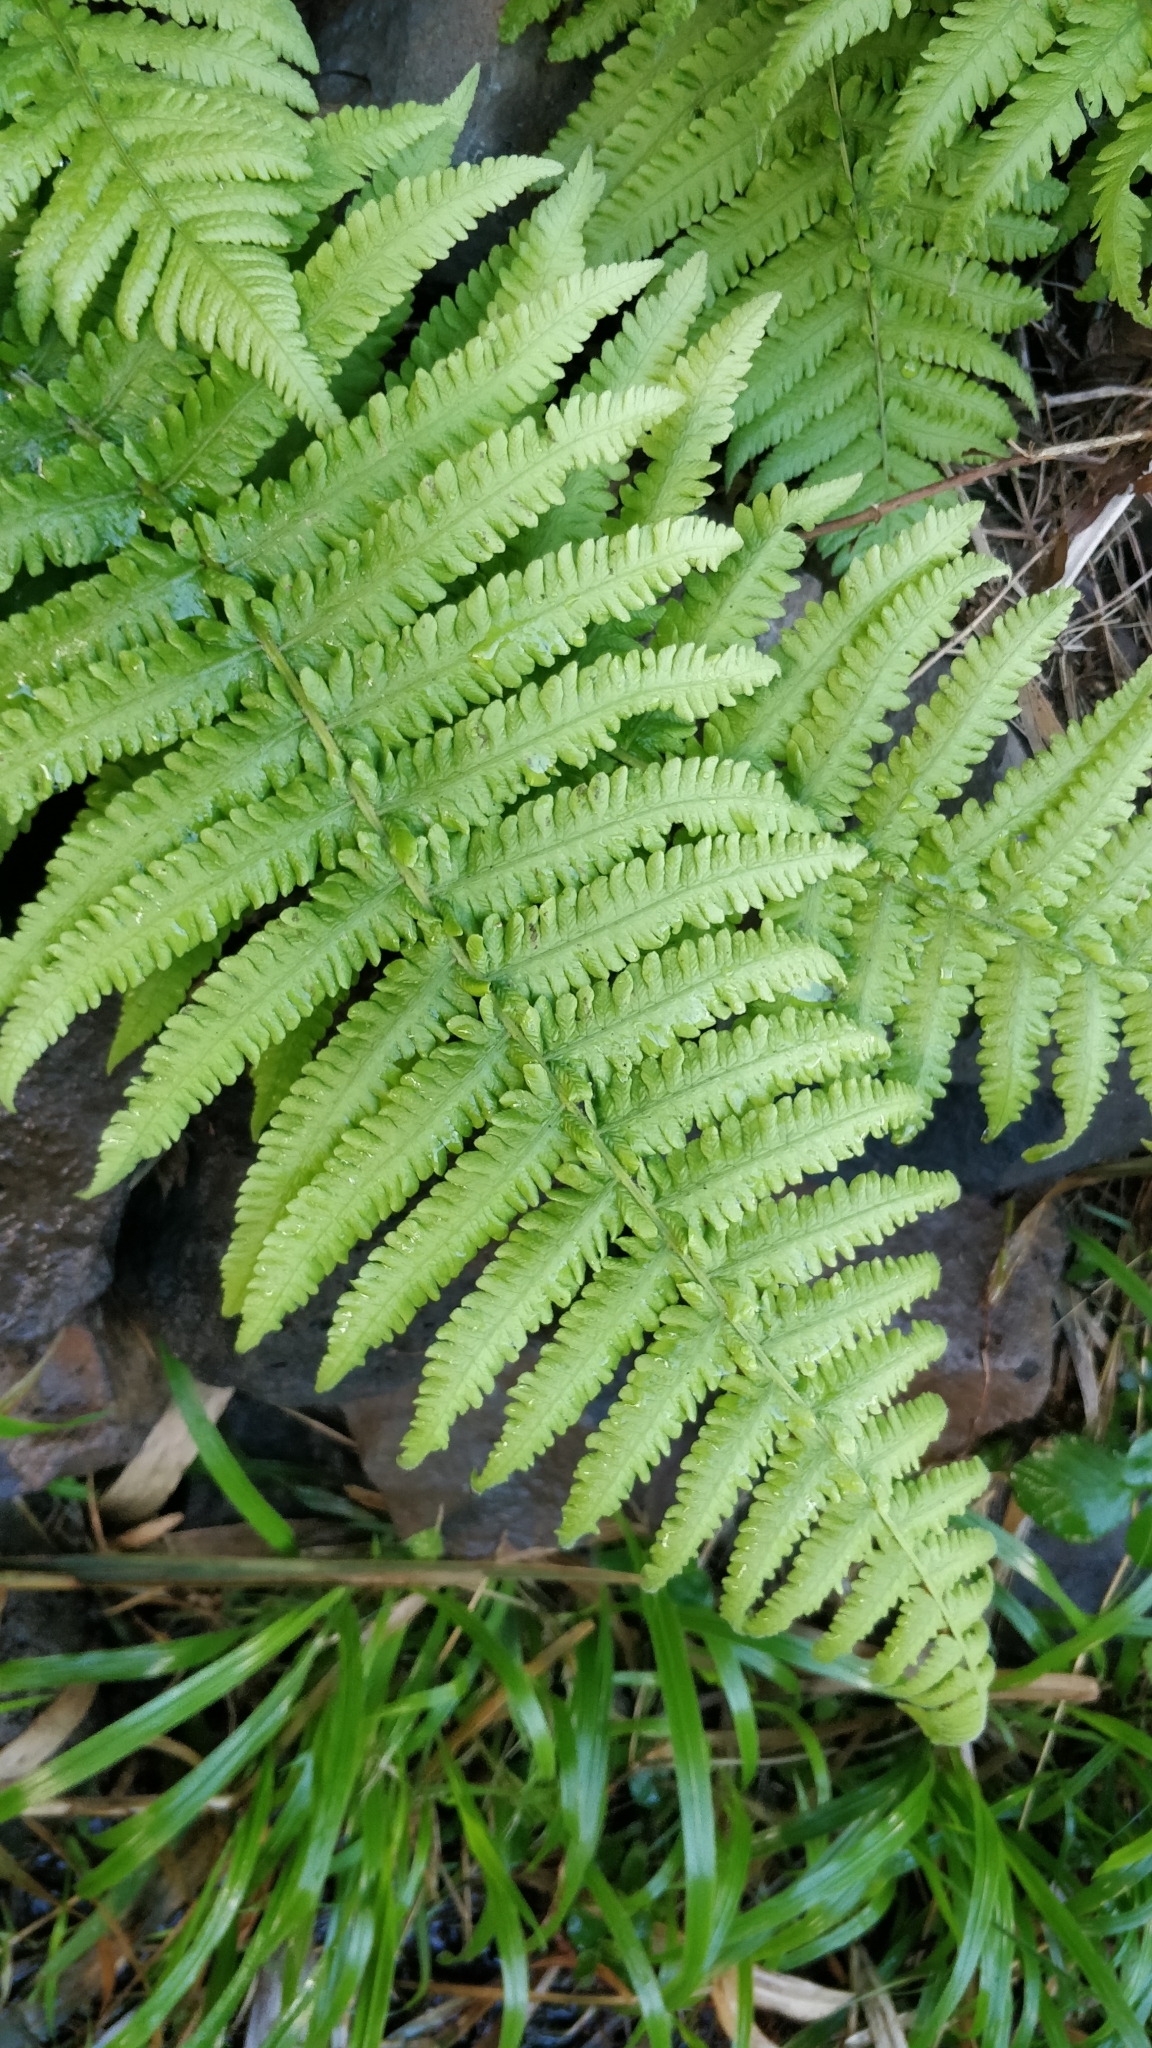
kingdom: Plantae
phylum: Tracheophyta
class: Polypodiopsida
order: Polypodiales
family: Thelypteridaceae
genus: Christella
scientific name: Christella dentata
